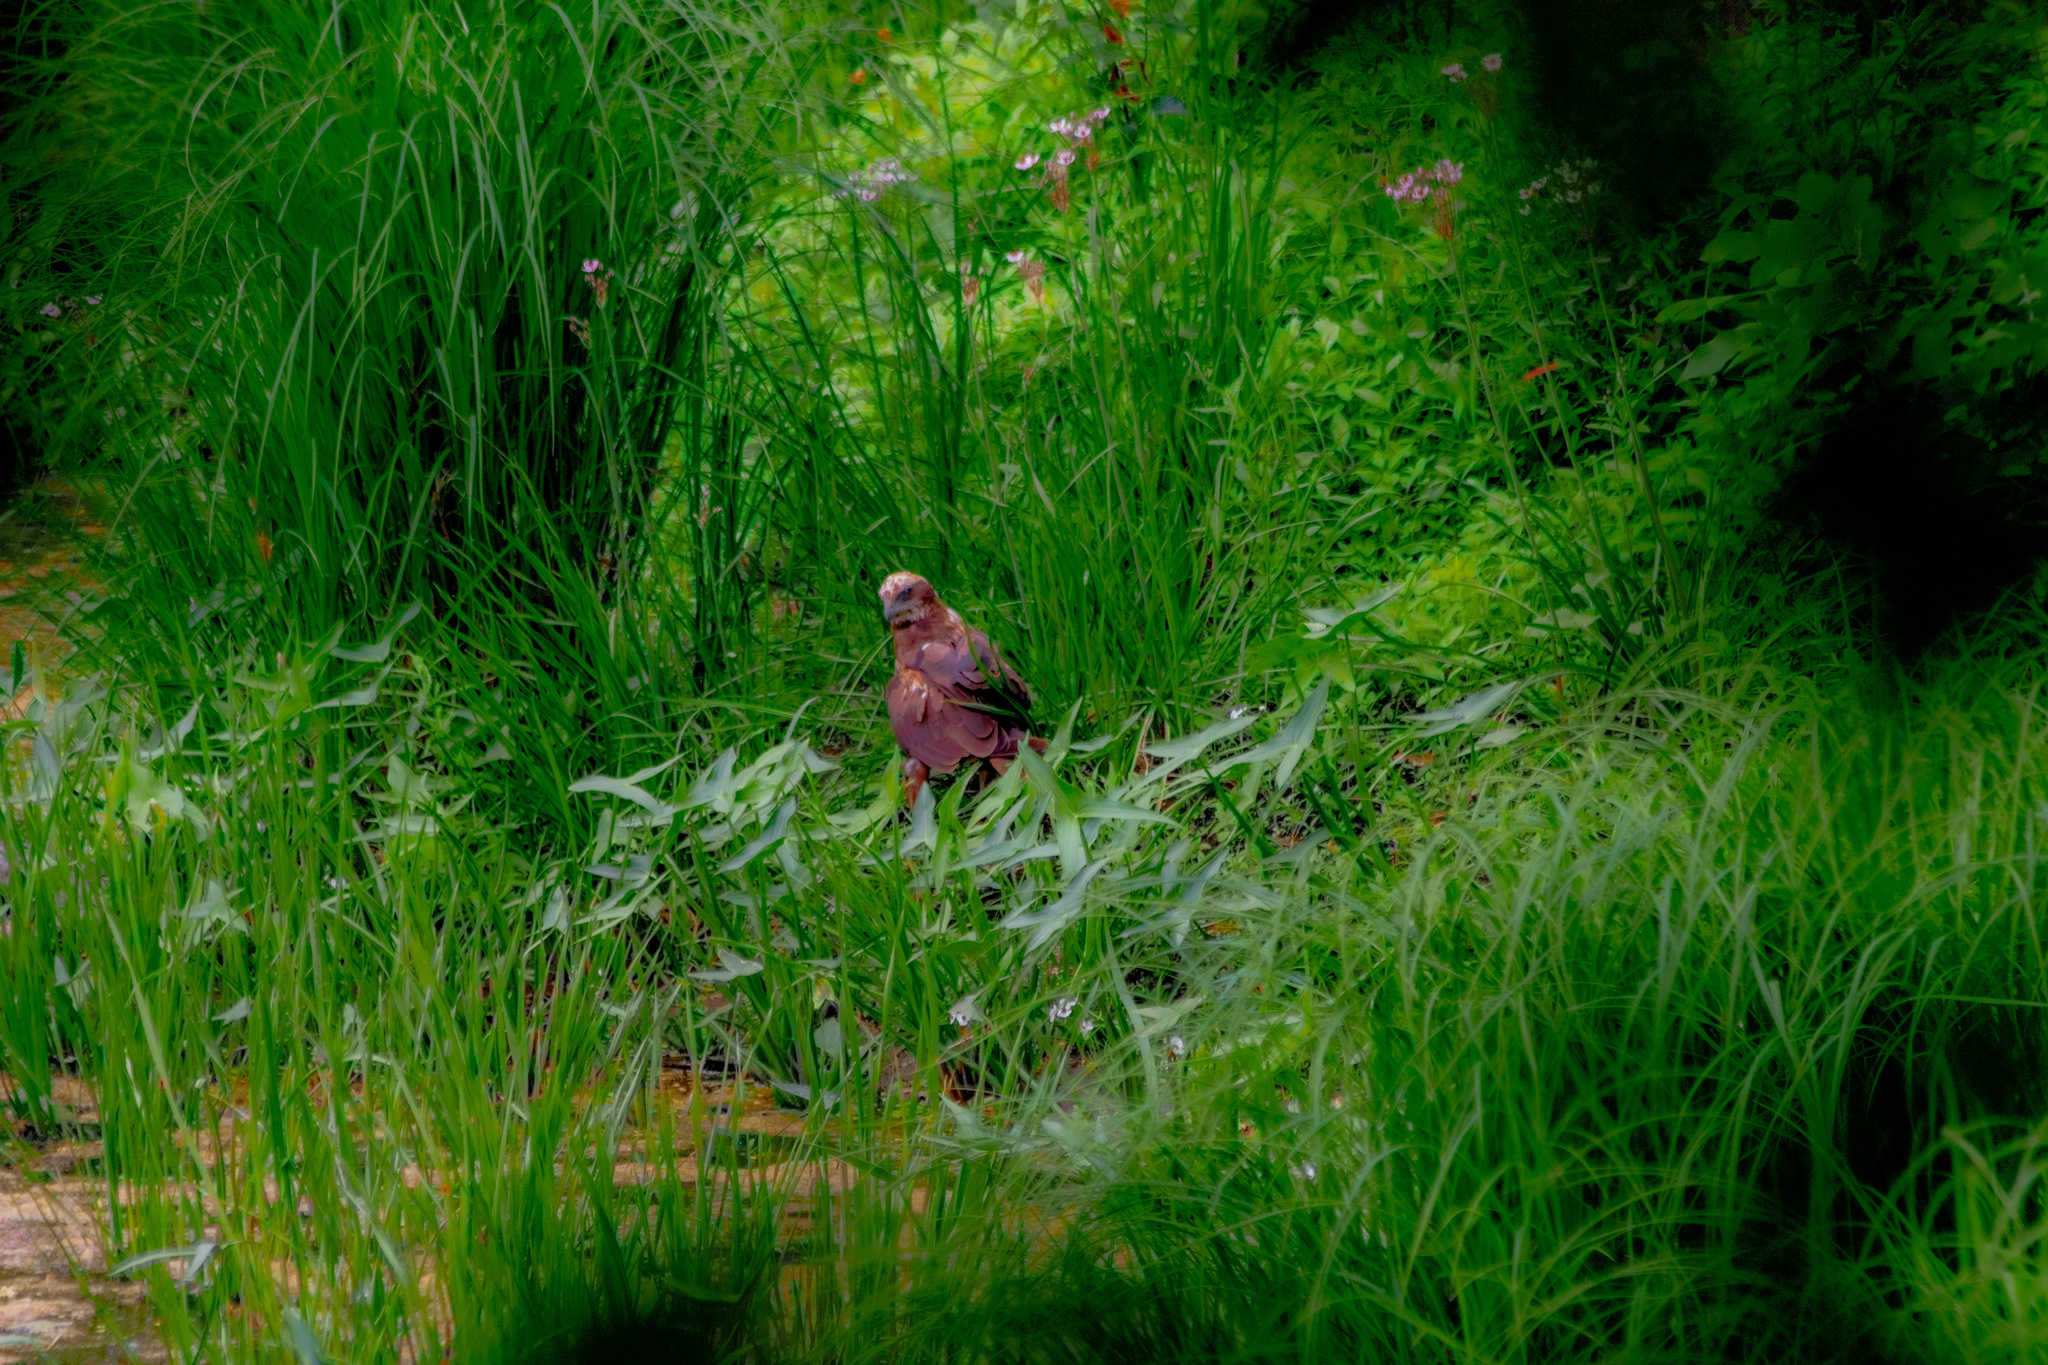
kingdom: Animalia
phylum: Chordata
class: Aves
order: Accipitriformes
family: Accipitridae
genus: Circus
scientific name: Circus aeruginosus
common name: Western marsh harrier
